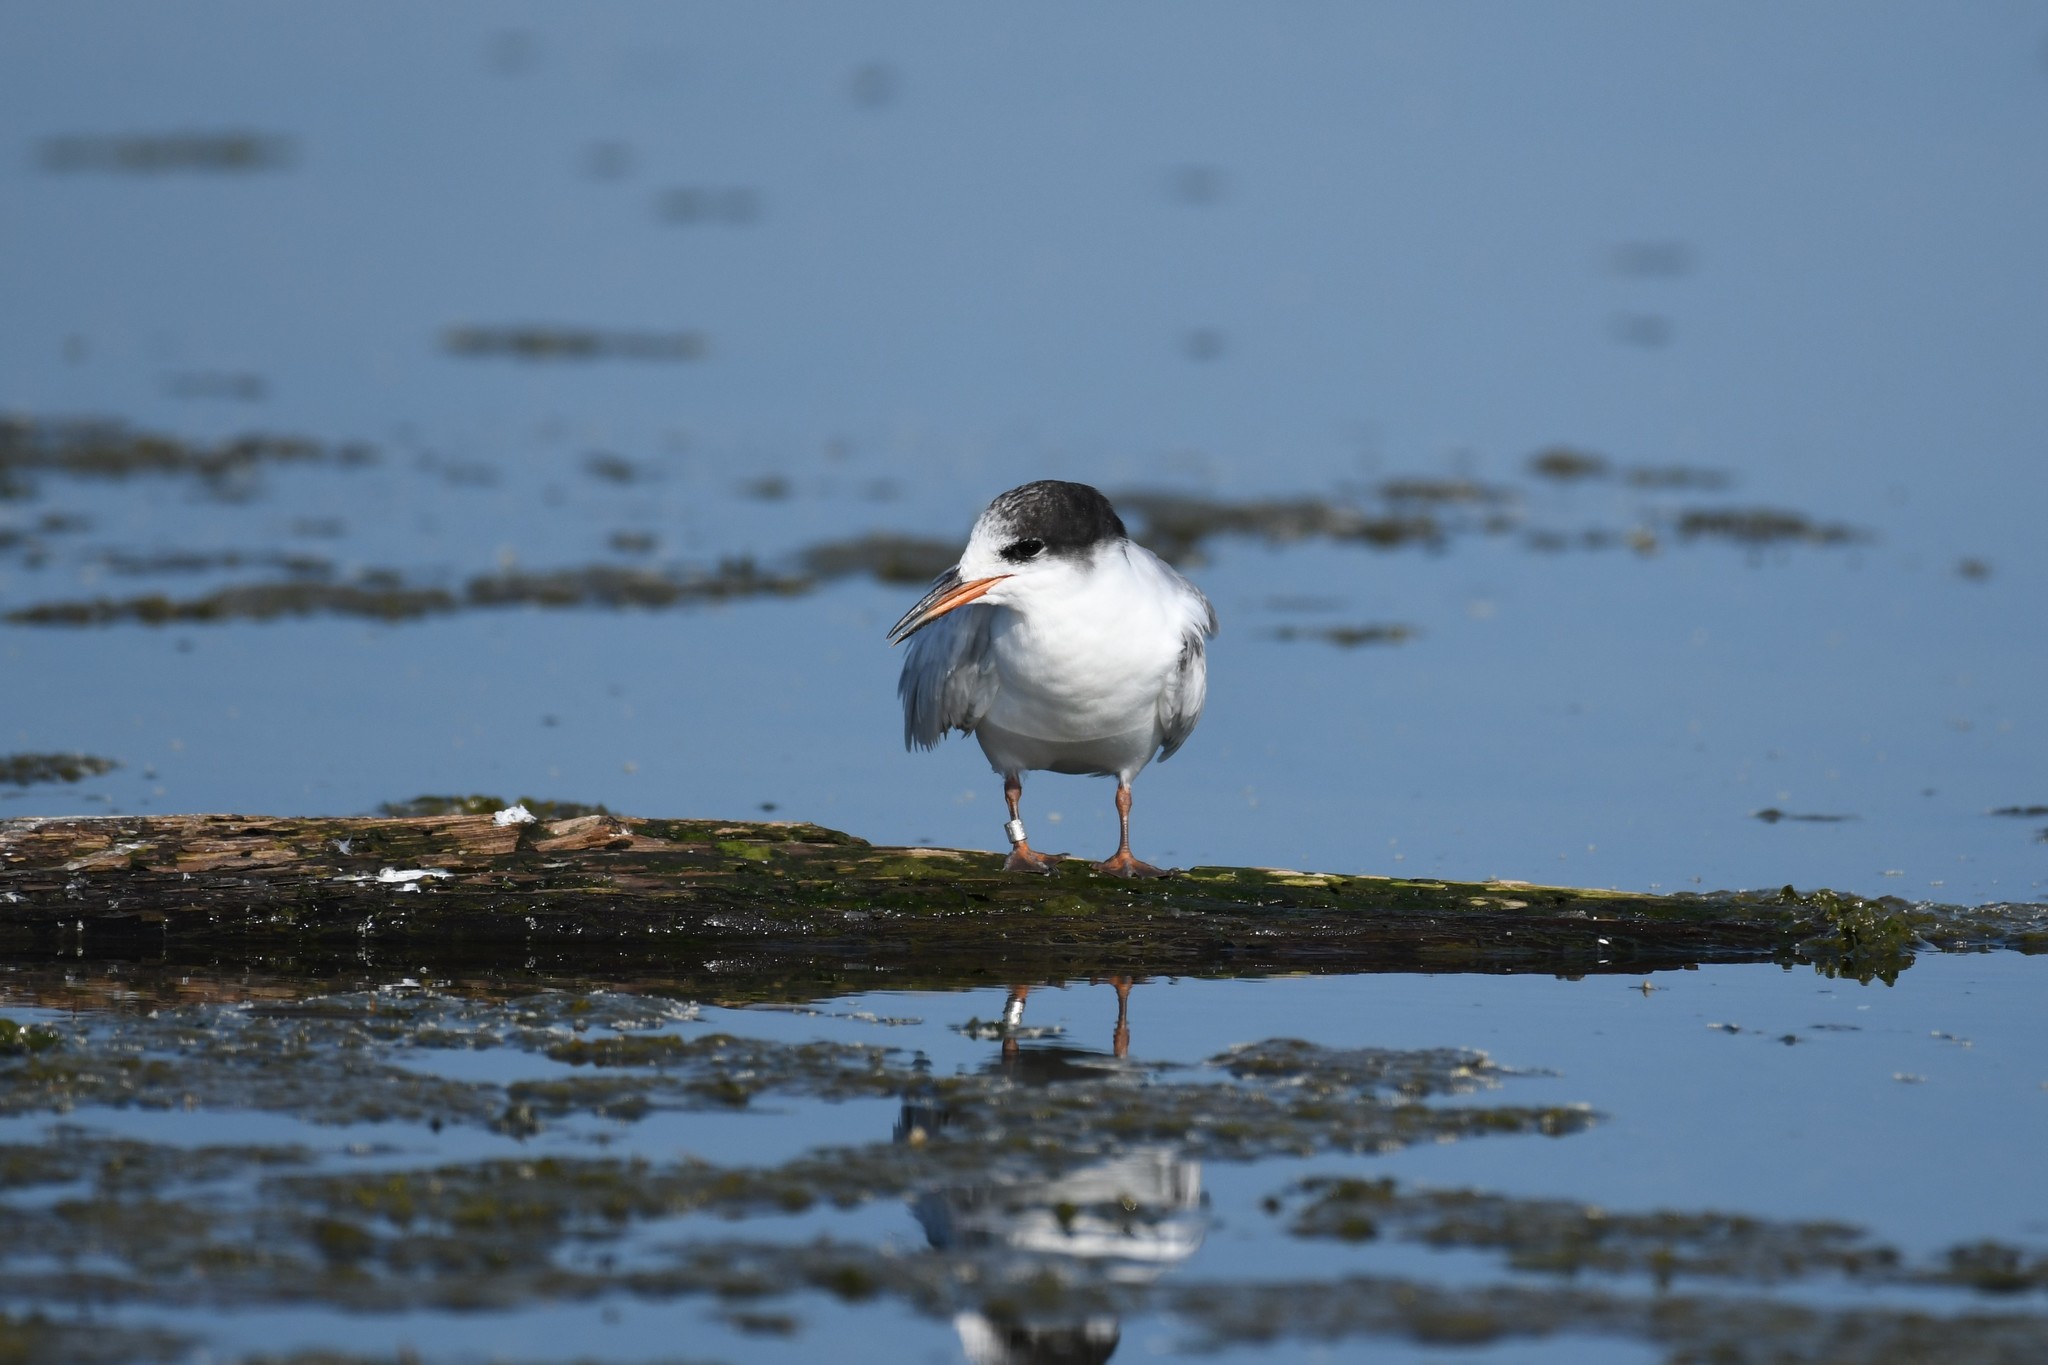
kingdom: Animalia
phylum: Chordata
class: Aves
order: Charadriiformes
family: Laridae
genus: Sterna
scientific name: Sterna hirundo
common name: Common tern
